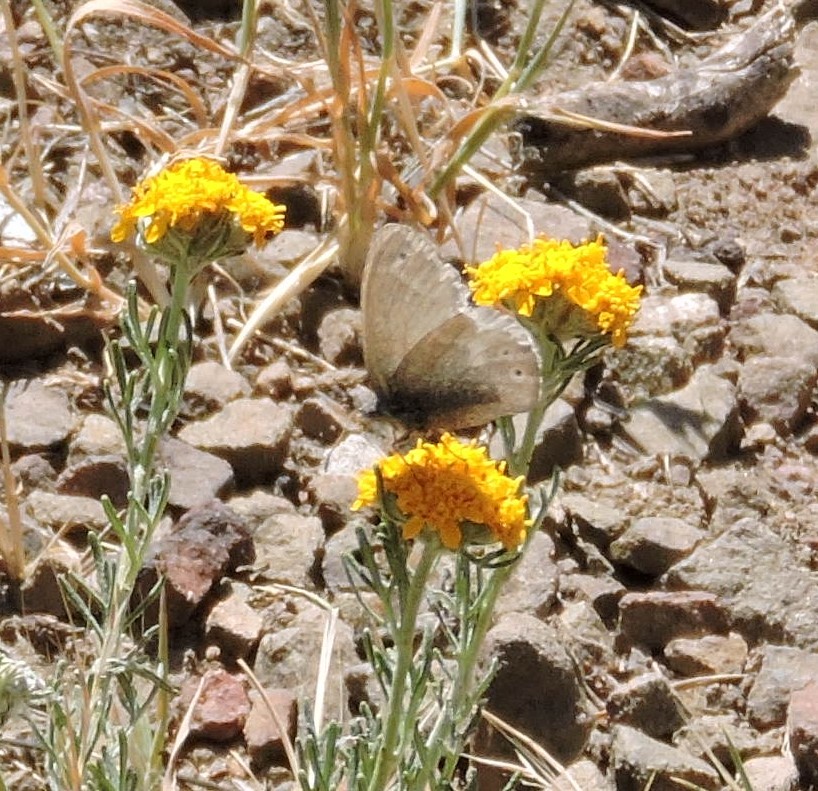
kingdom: Animalia
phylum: Arthropoda
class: Insecta
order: Lepidoptera
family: Nymphalidae
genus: Coenonympha
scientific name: Coenonympha california
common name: Common ringlet
